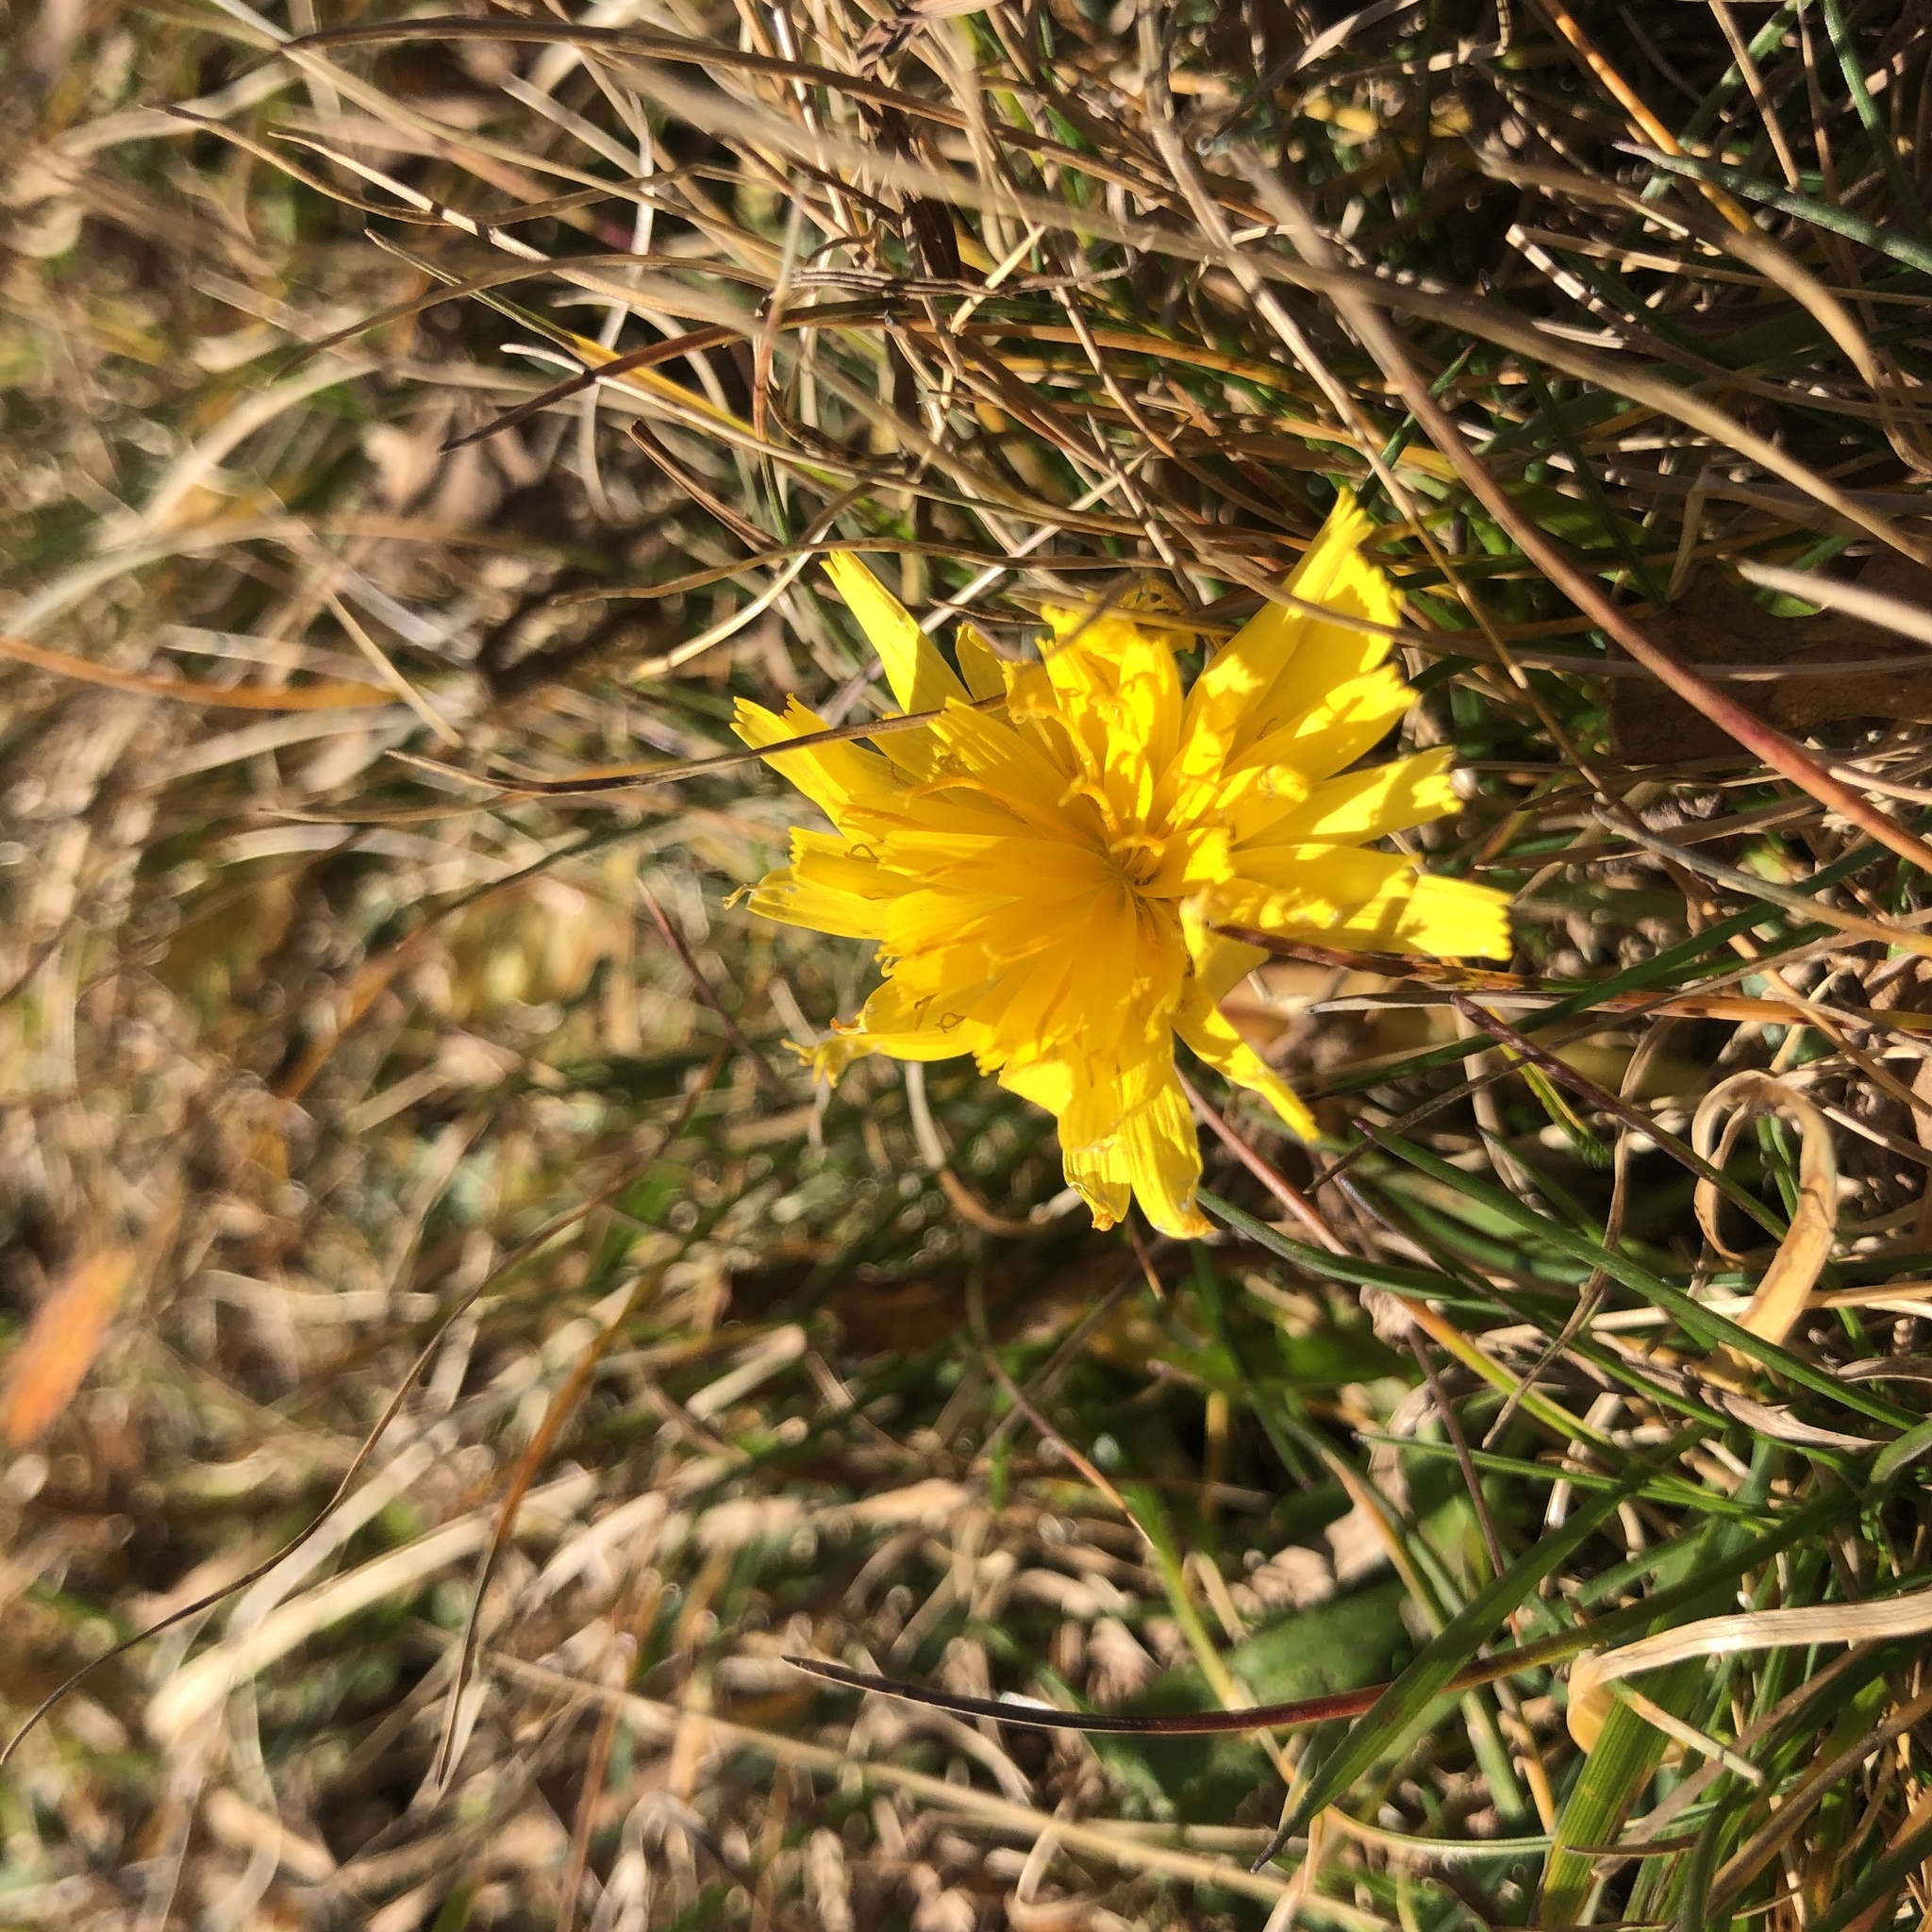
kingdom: Plantae
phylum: Tracheophyta
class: Magnoliopsida
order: Asterales
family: Asteraceae
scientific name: Asteraceae
